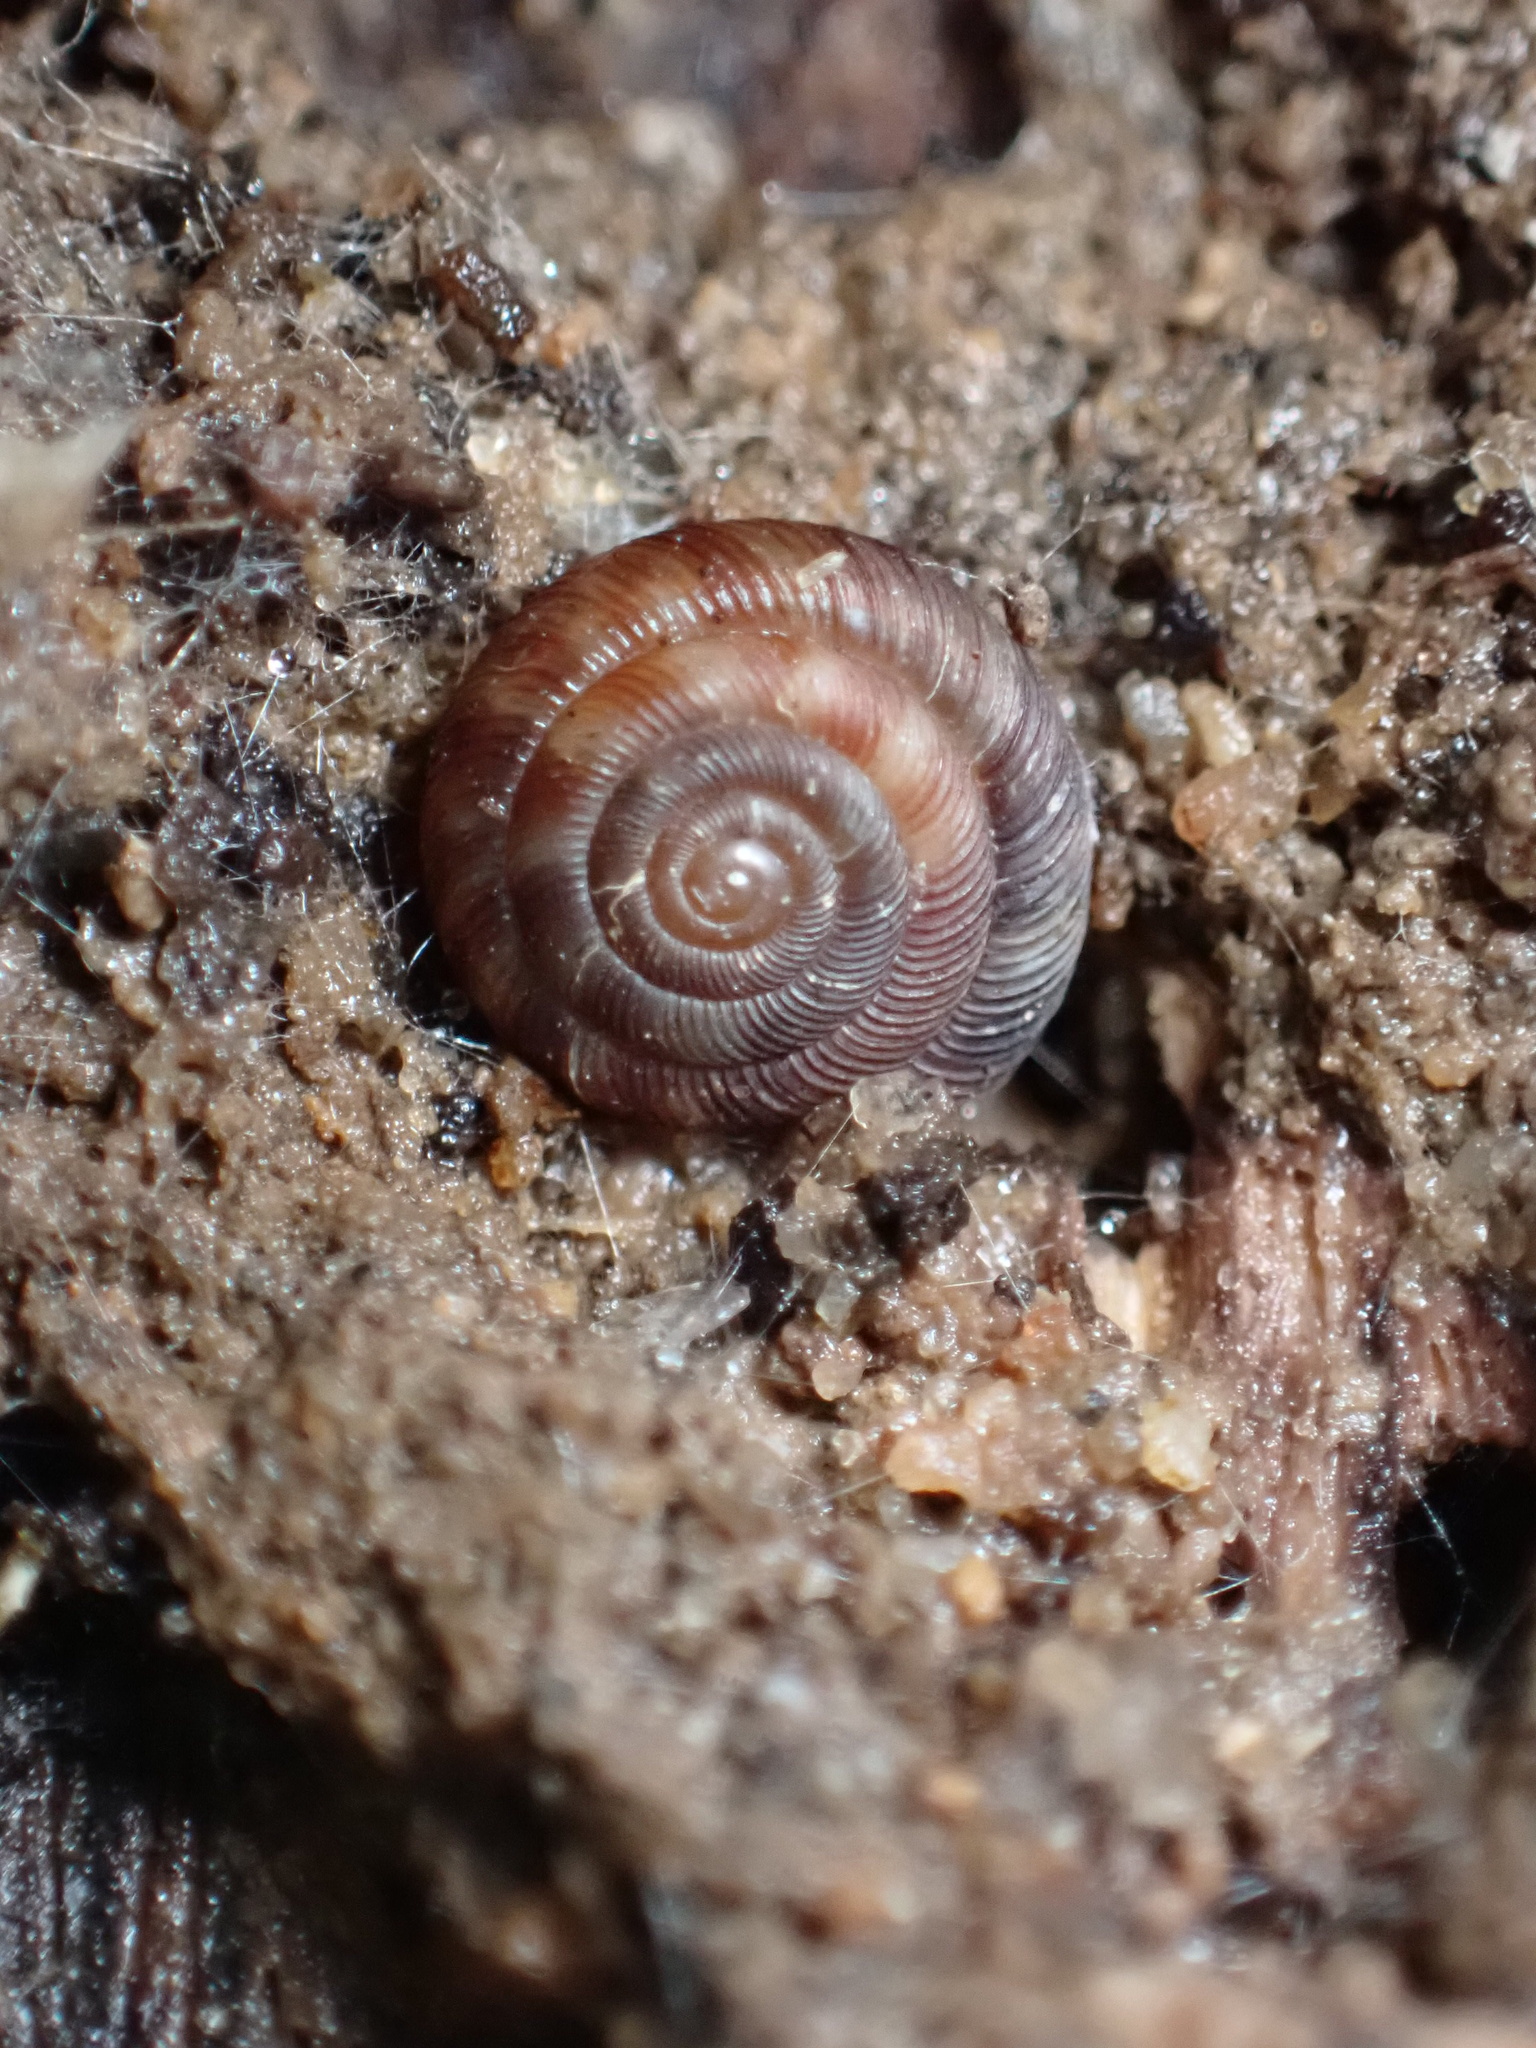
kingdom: Animalia
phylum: Mollusca
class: Gastropoda
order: Stylommatophora
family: Discidae
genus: Discus
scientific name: Discus rotundatus
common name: Rounded snail
